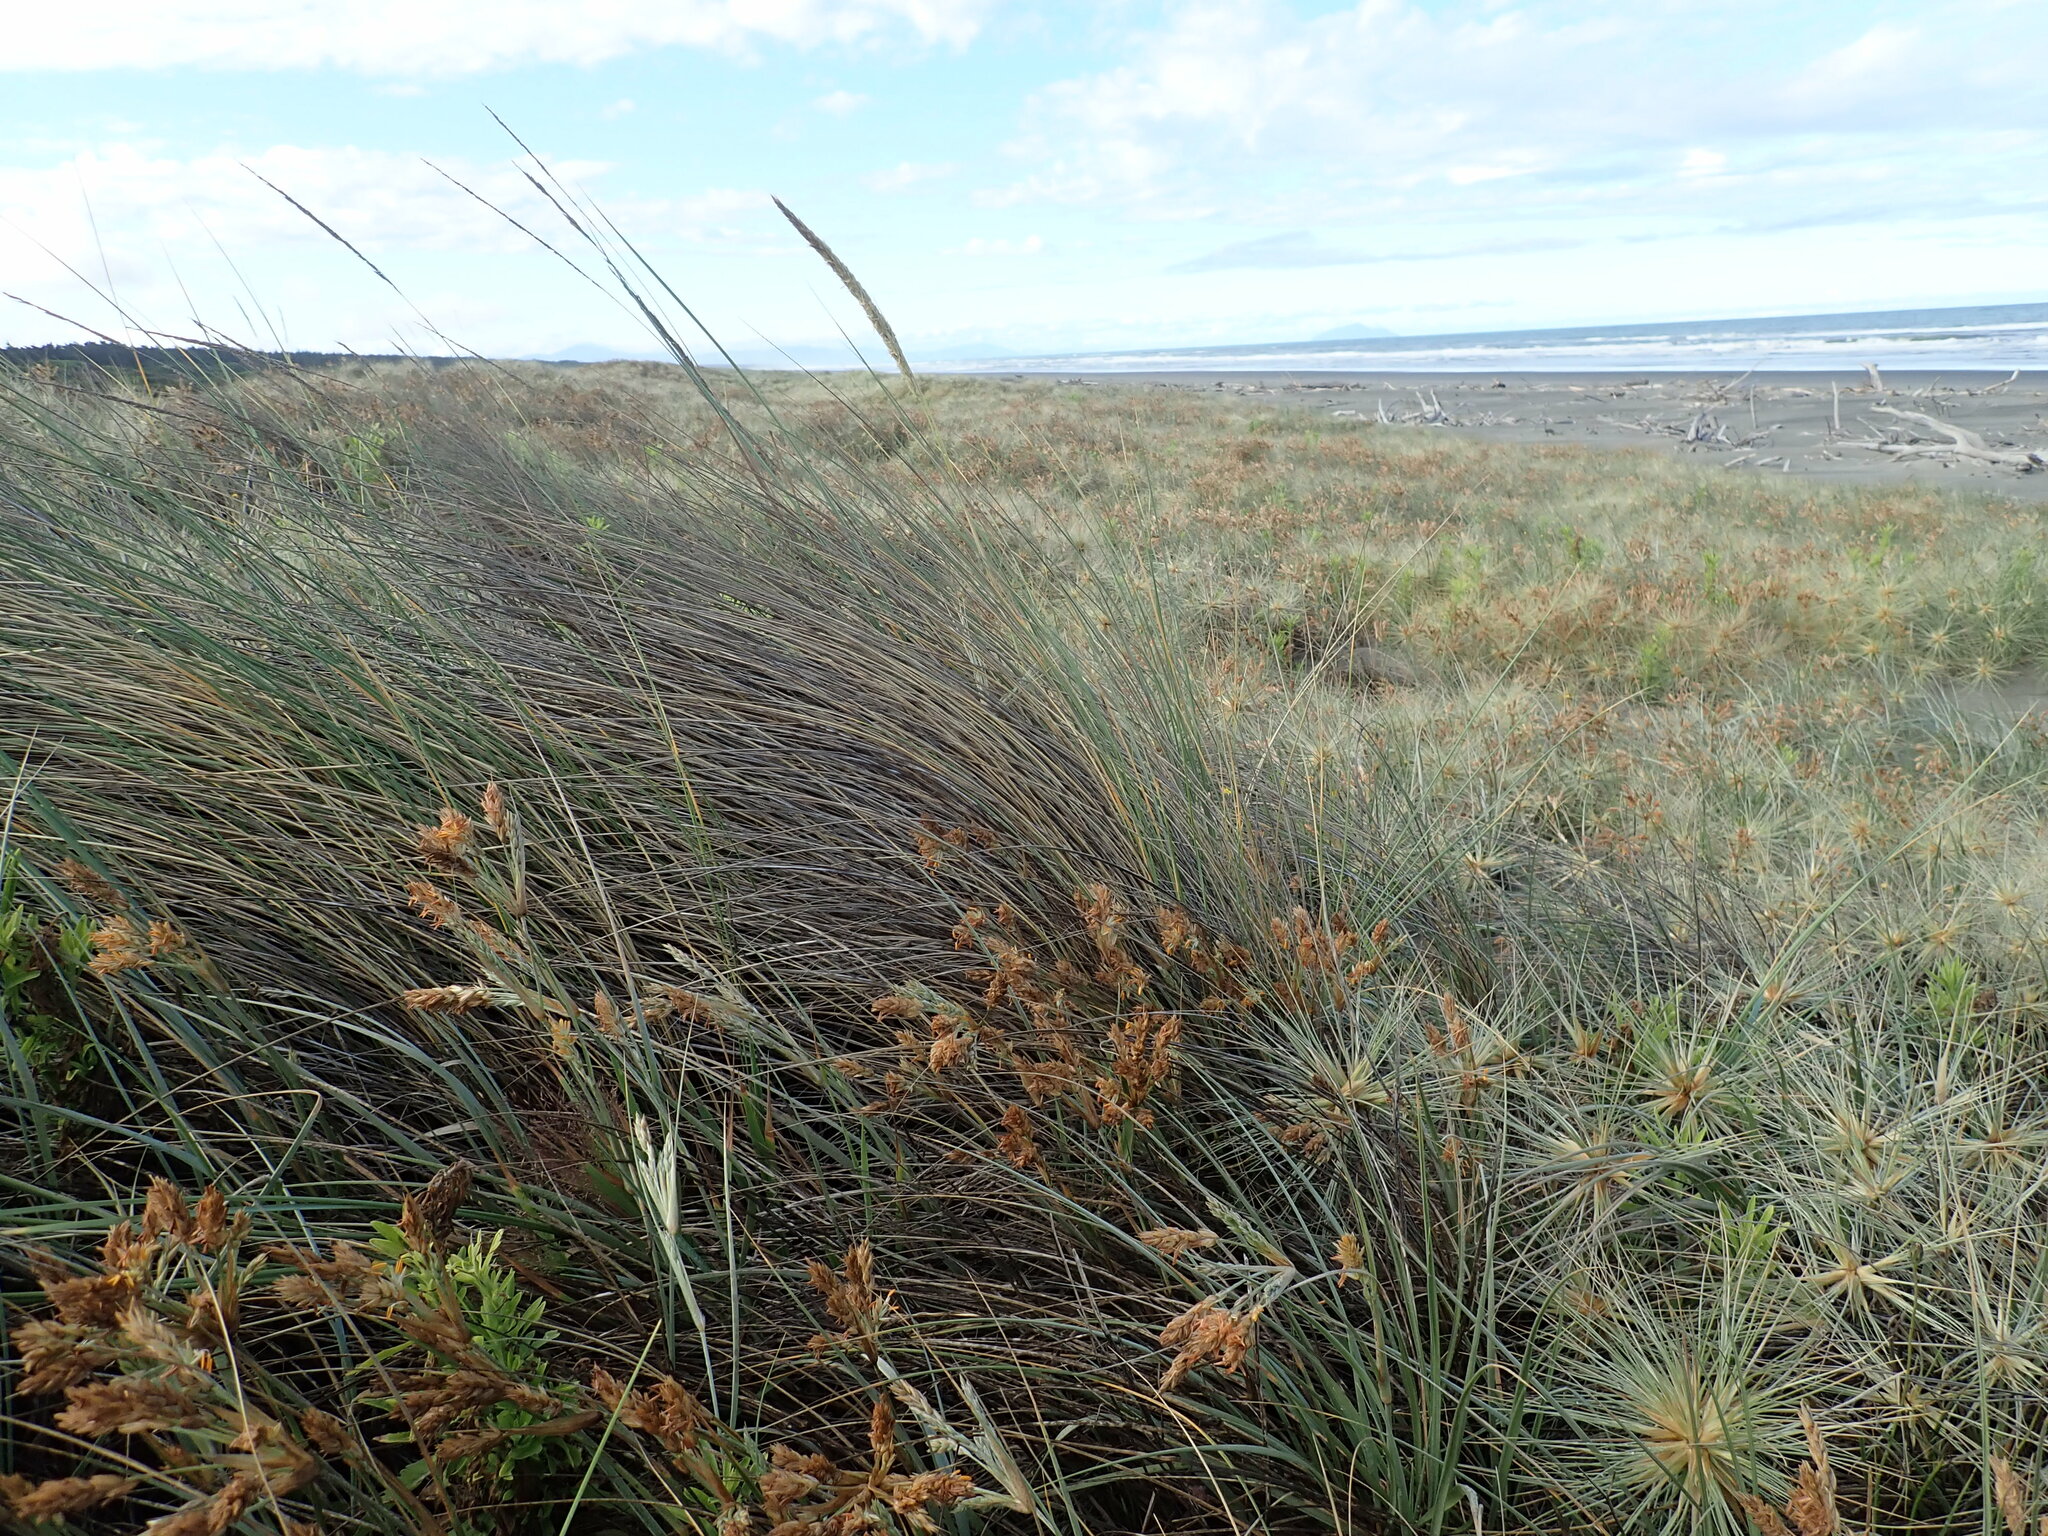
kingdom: Plantae
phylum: Tracheophyta
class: Liliopsida
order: Poales
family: Poaceae
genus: Calamagrostis
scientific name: Calamagrostis arenaria
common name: European beachgrass
